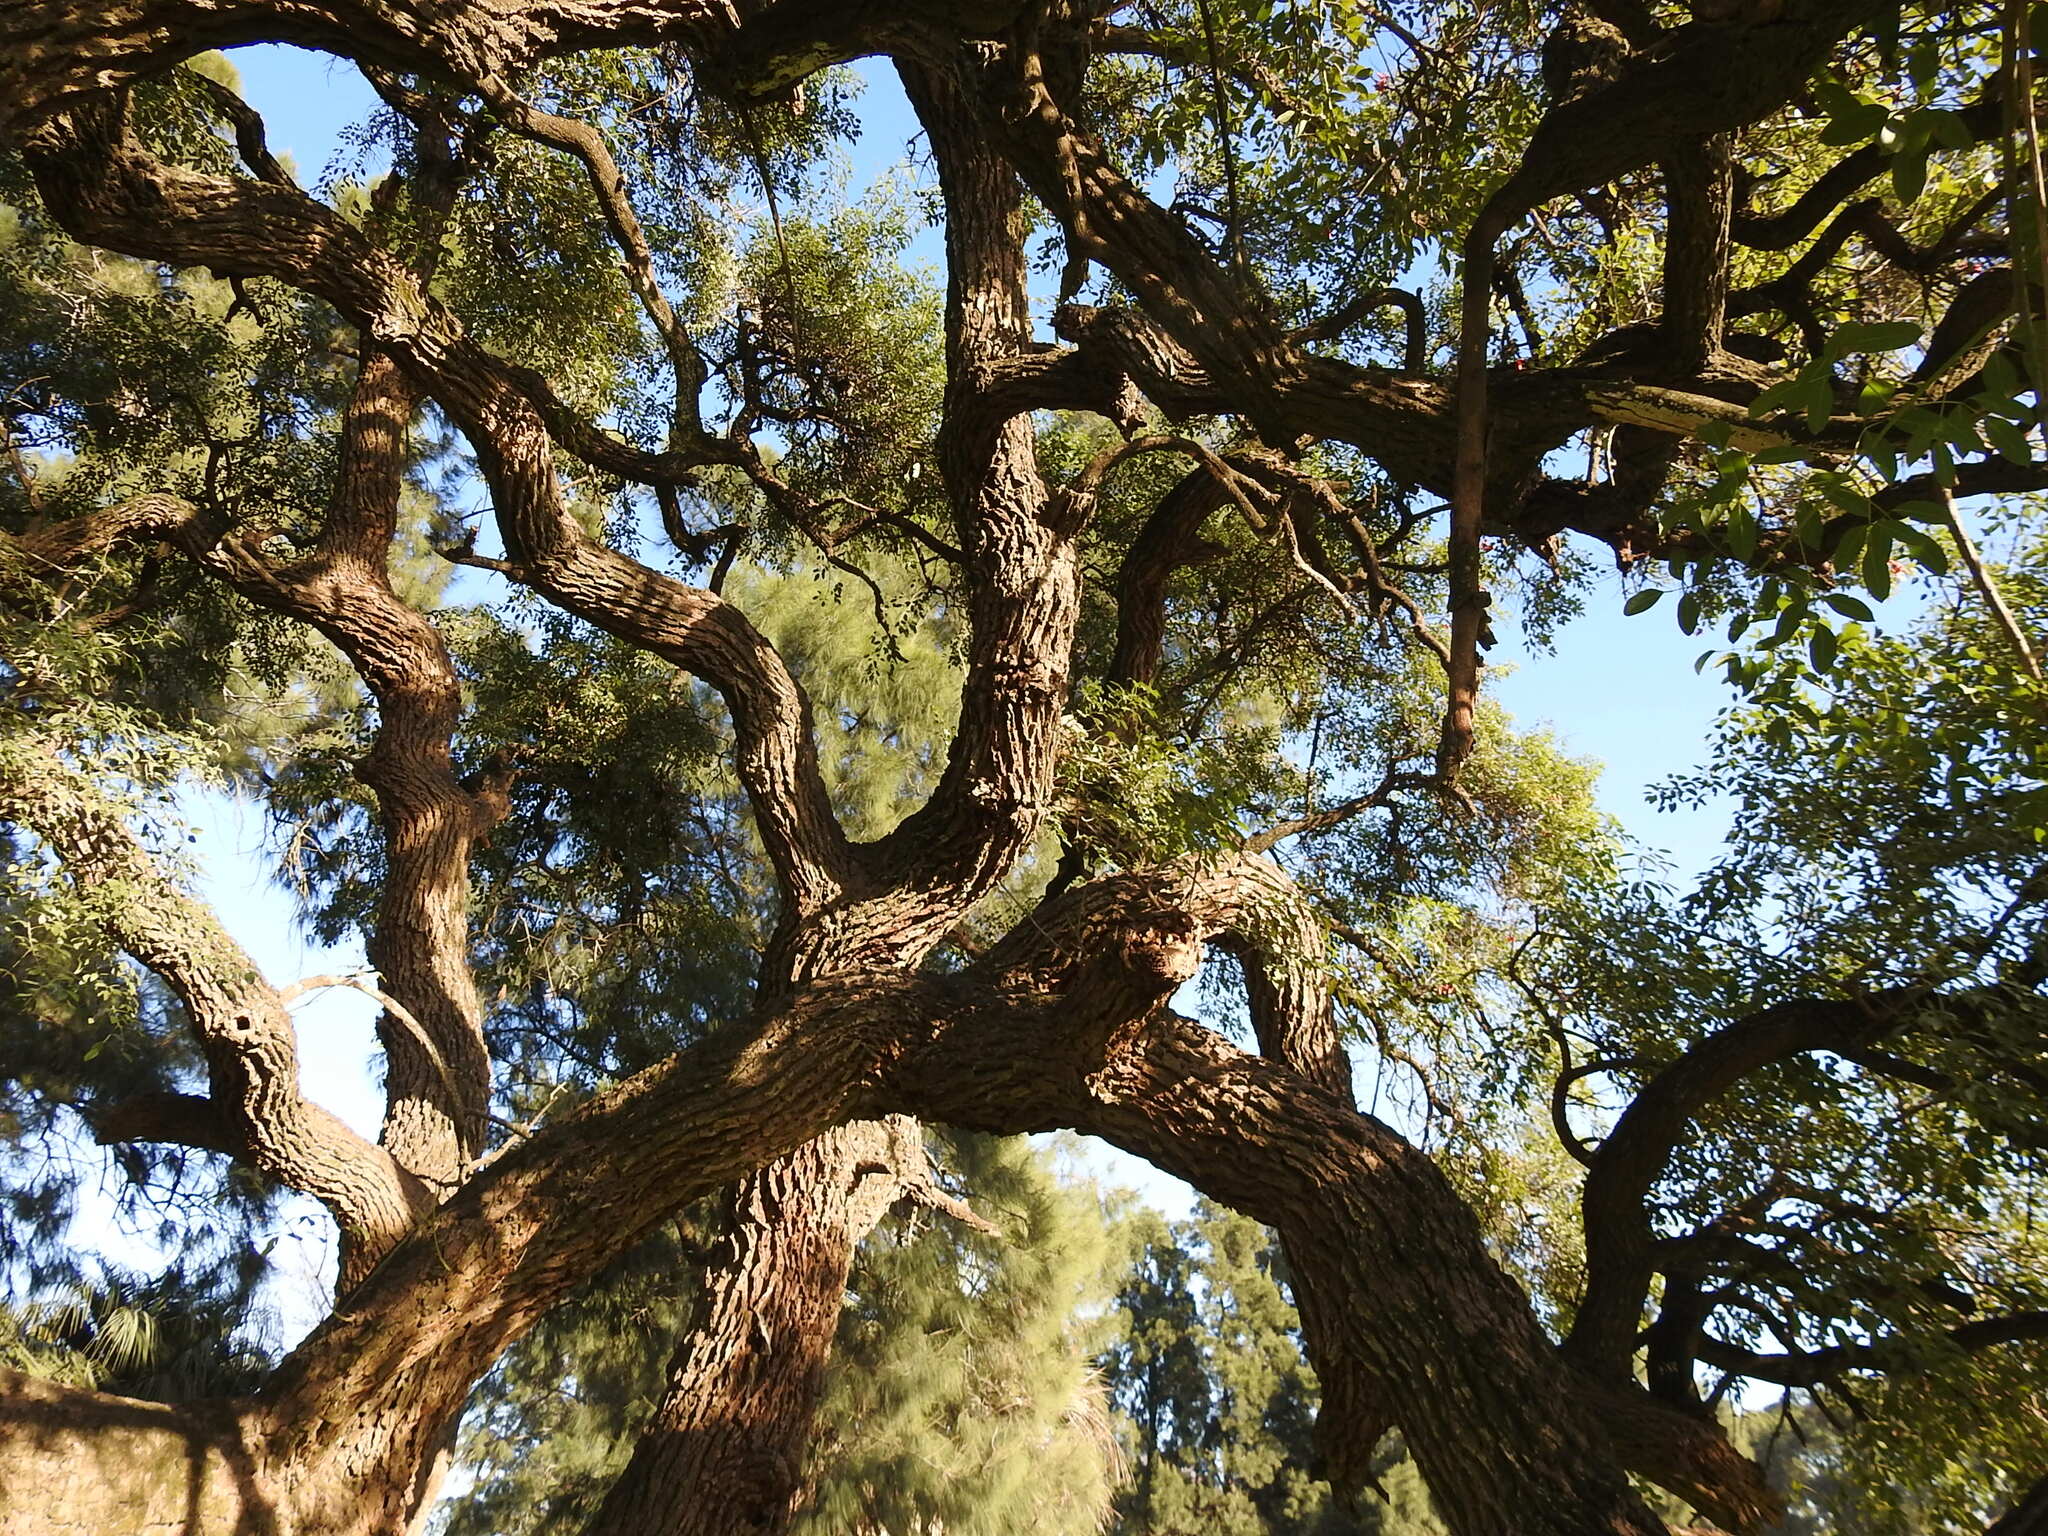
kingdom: Plantae
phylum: Tracheophyta
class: Magnoliopsida
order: Fabales
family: Fabaceae
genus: Erythrina
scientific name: Erythrina crista-galli
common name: Cockspur coral tree
